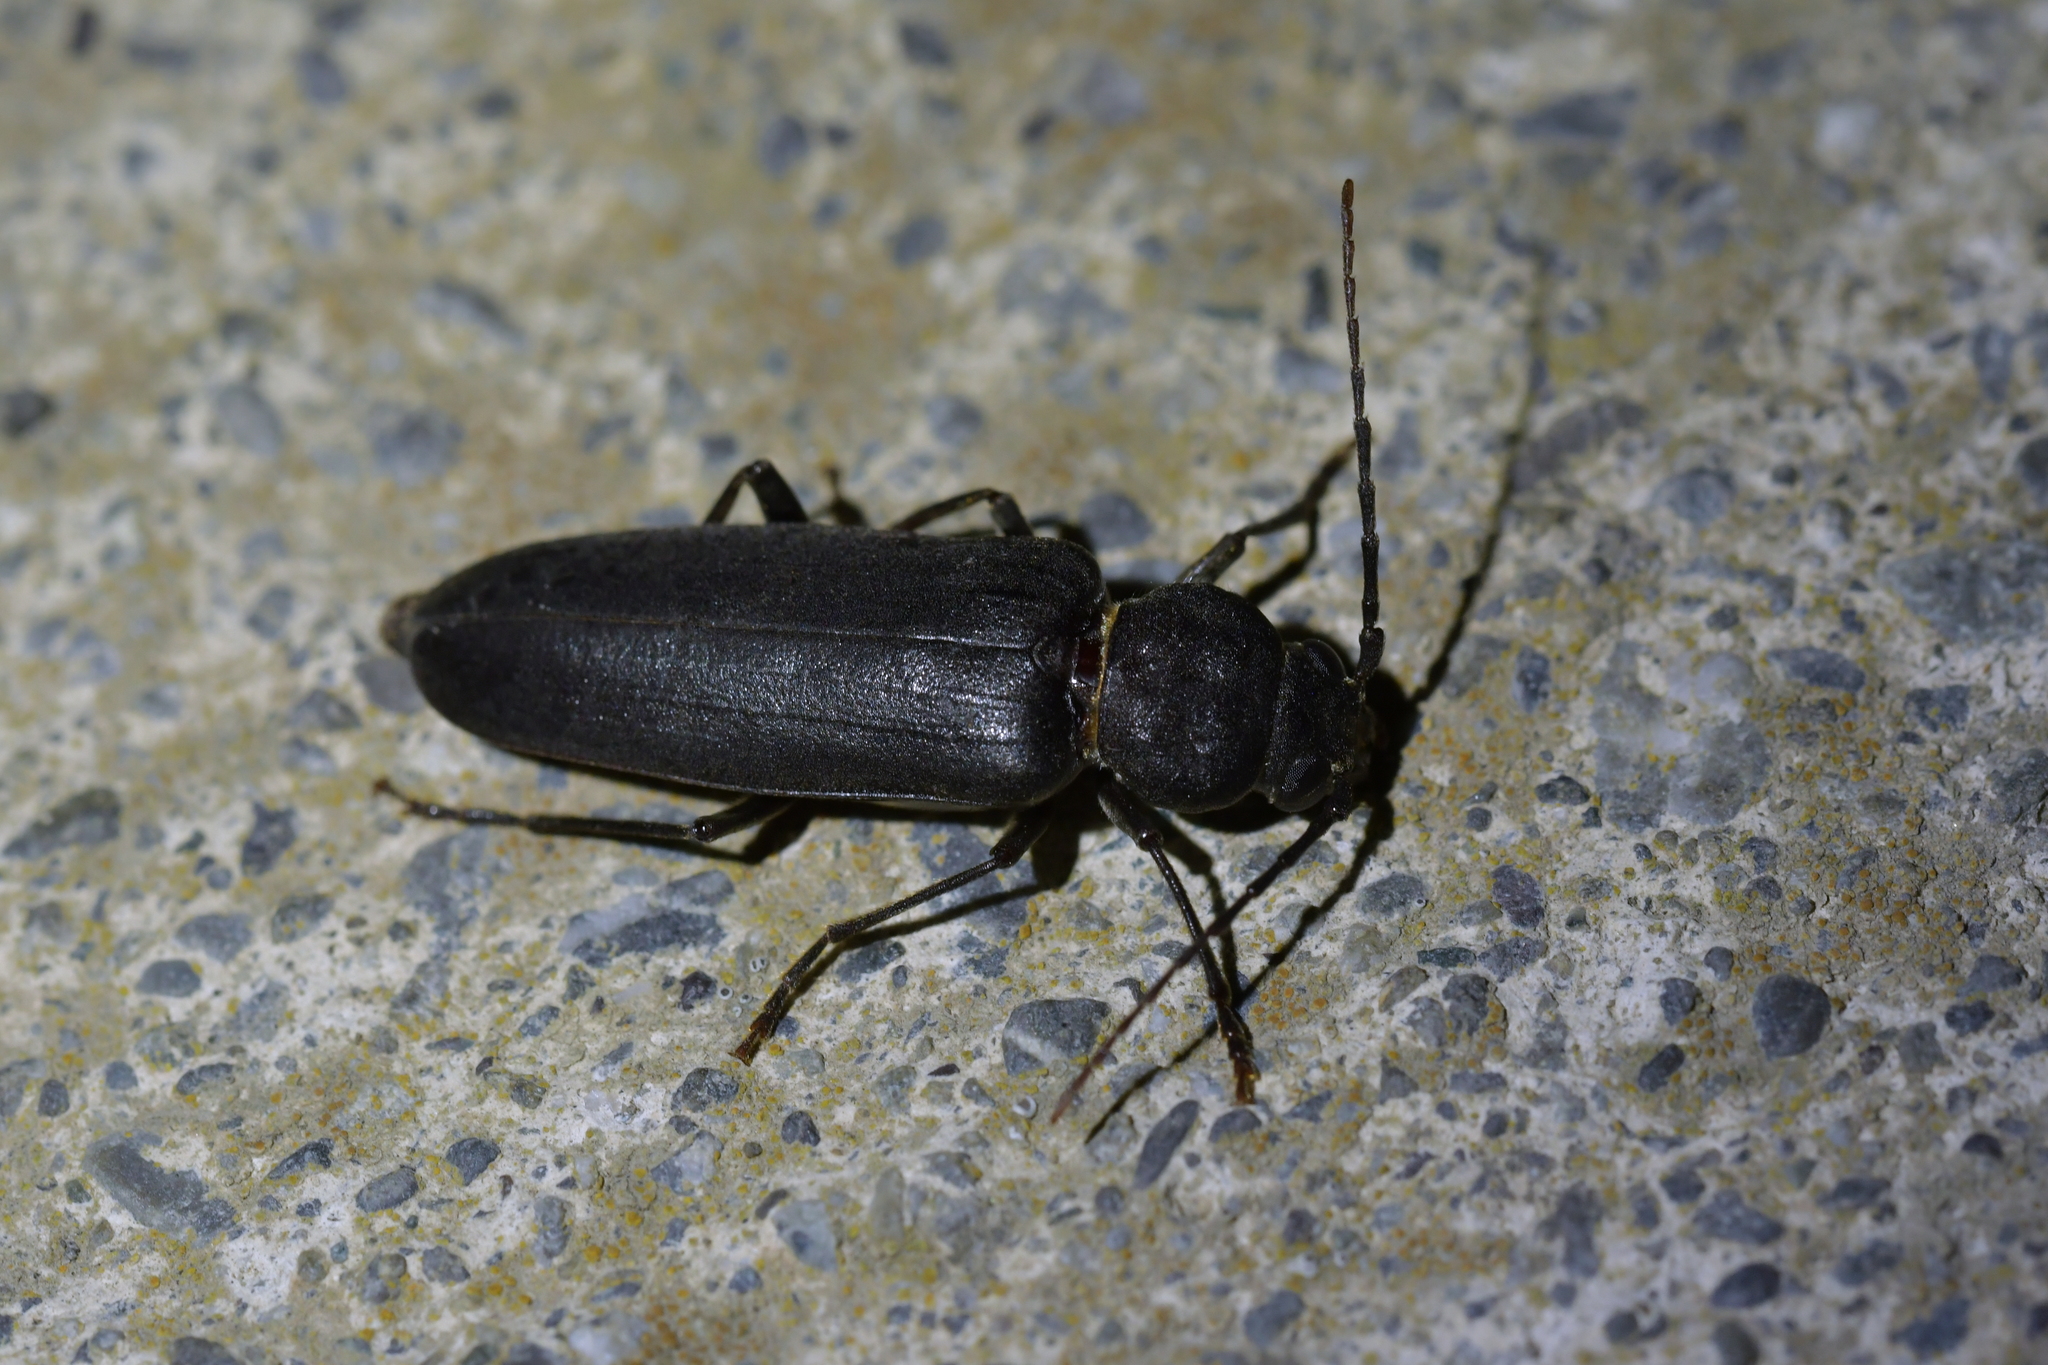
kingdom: Animalia
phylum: Arthropoda
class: Insecta
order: Coleoptera
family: Cerambycidae
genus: Arhopalus
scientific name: Arhopalus ferus
